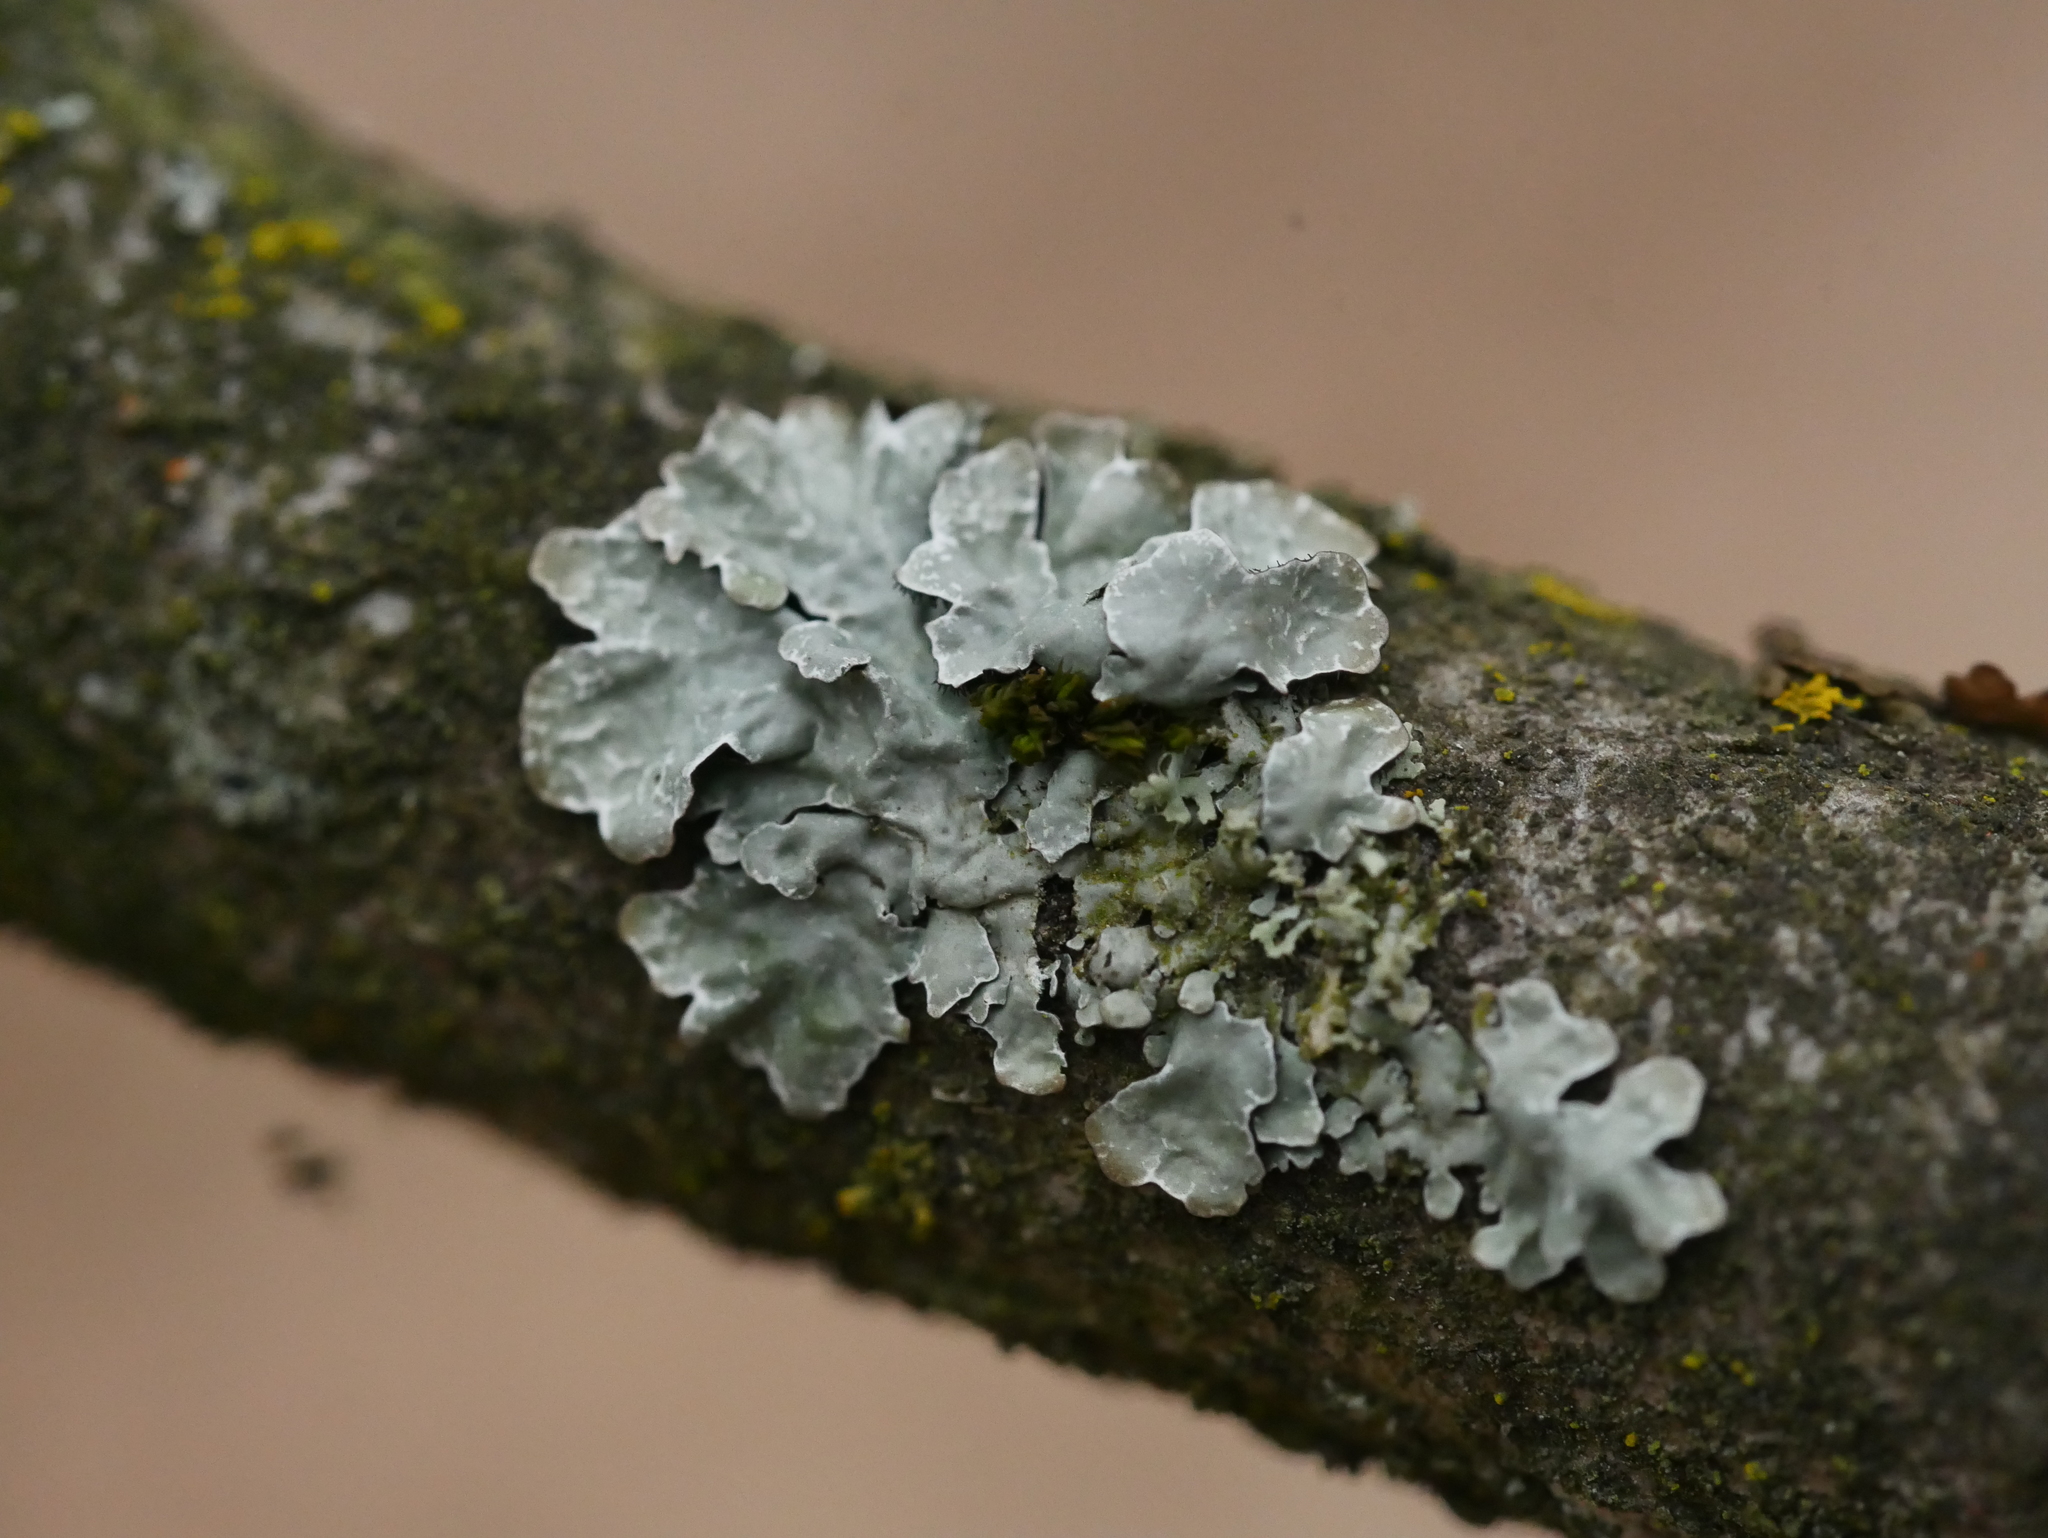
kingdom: Fungi
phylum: Ascomycota
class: Lecanoromycetes
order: Lecanorales
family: Parmeliaceae
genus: Parmelia
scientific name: Parmelia sulcata
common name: Netted shield lichen
